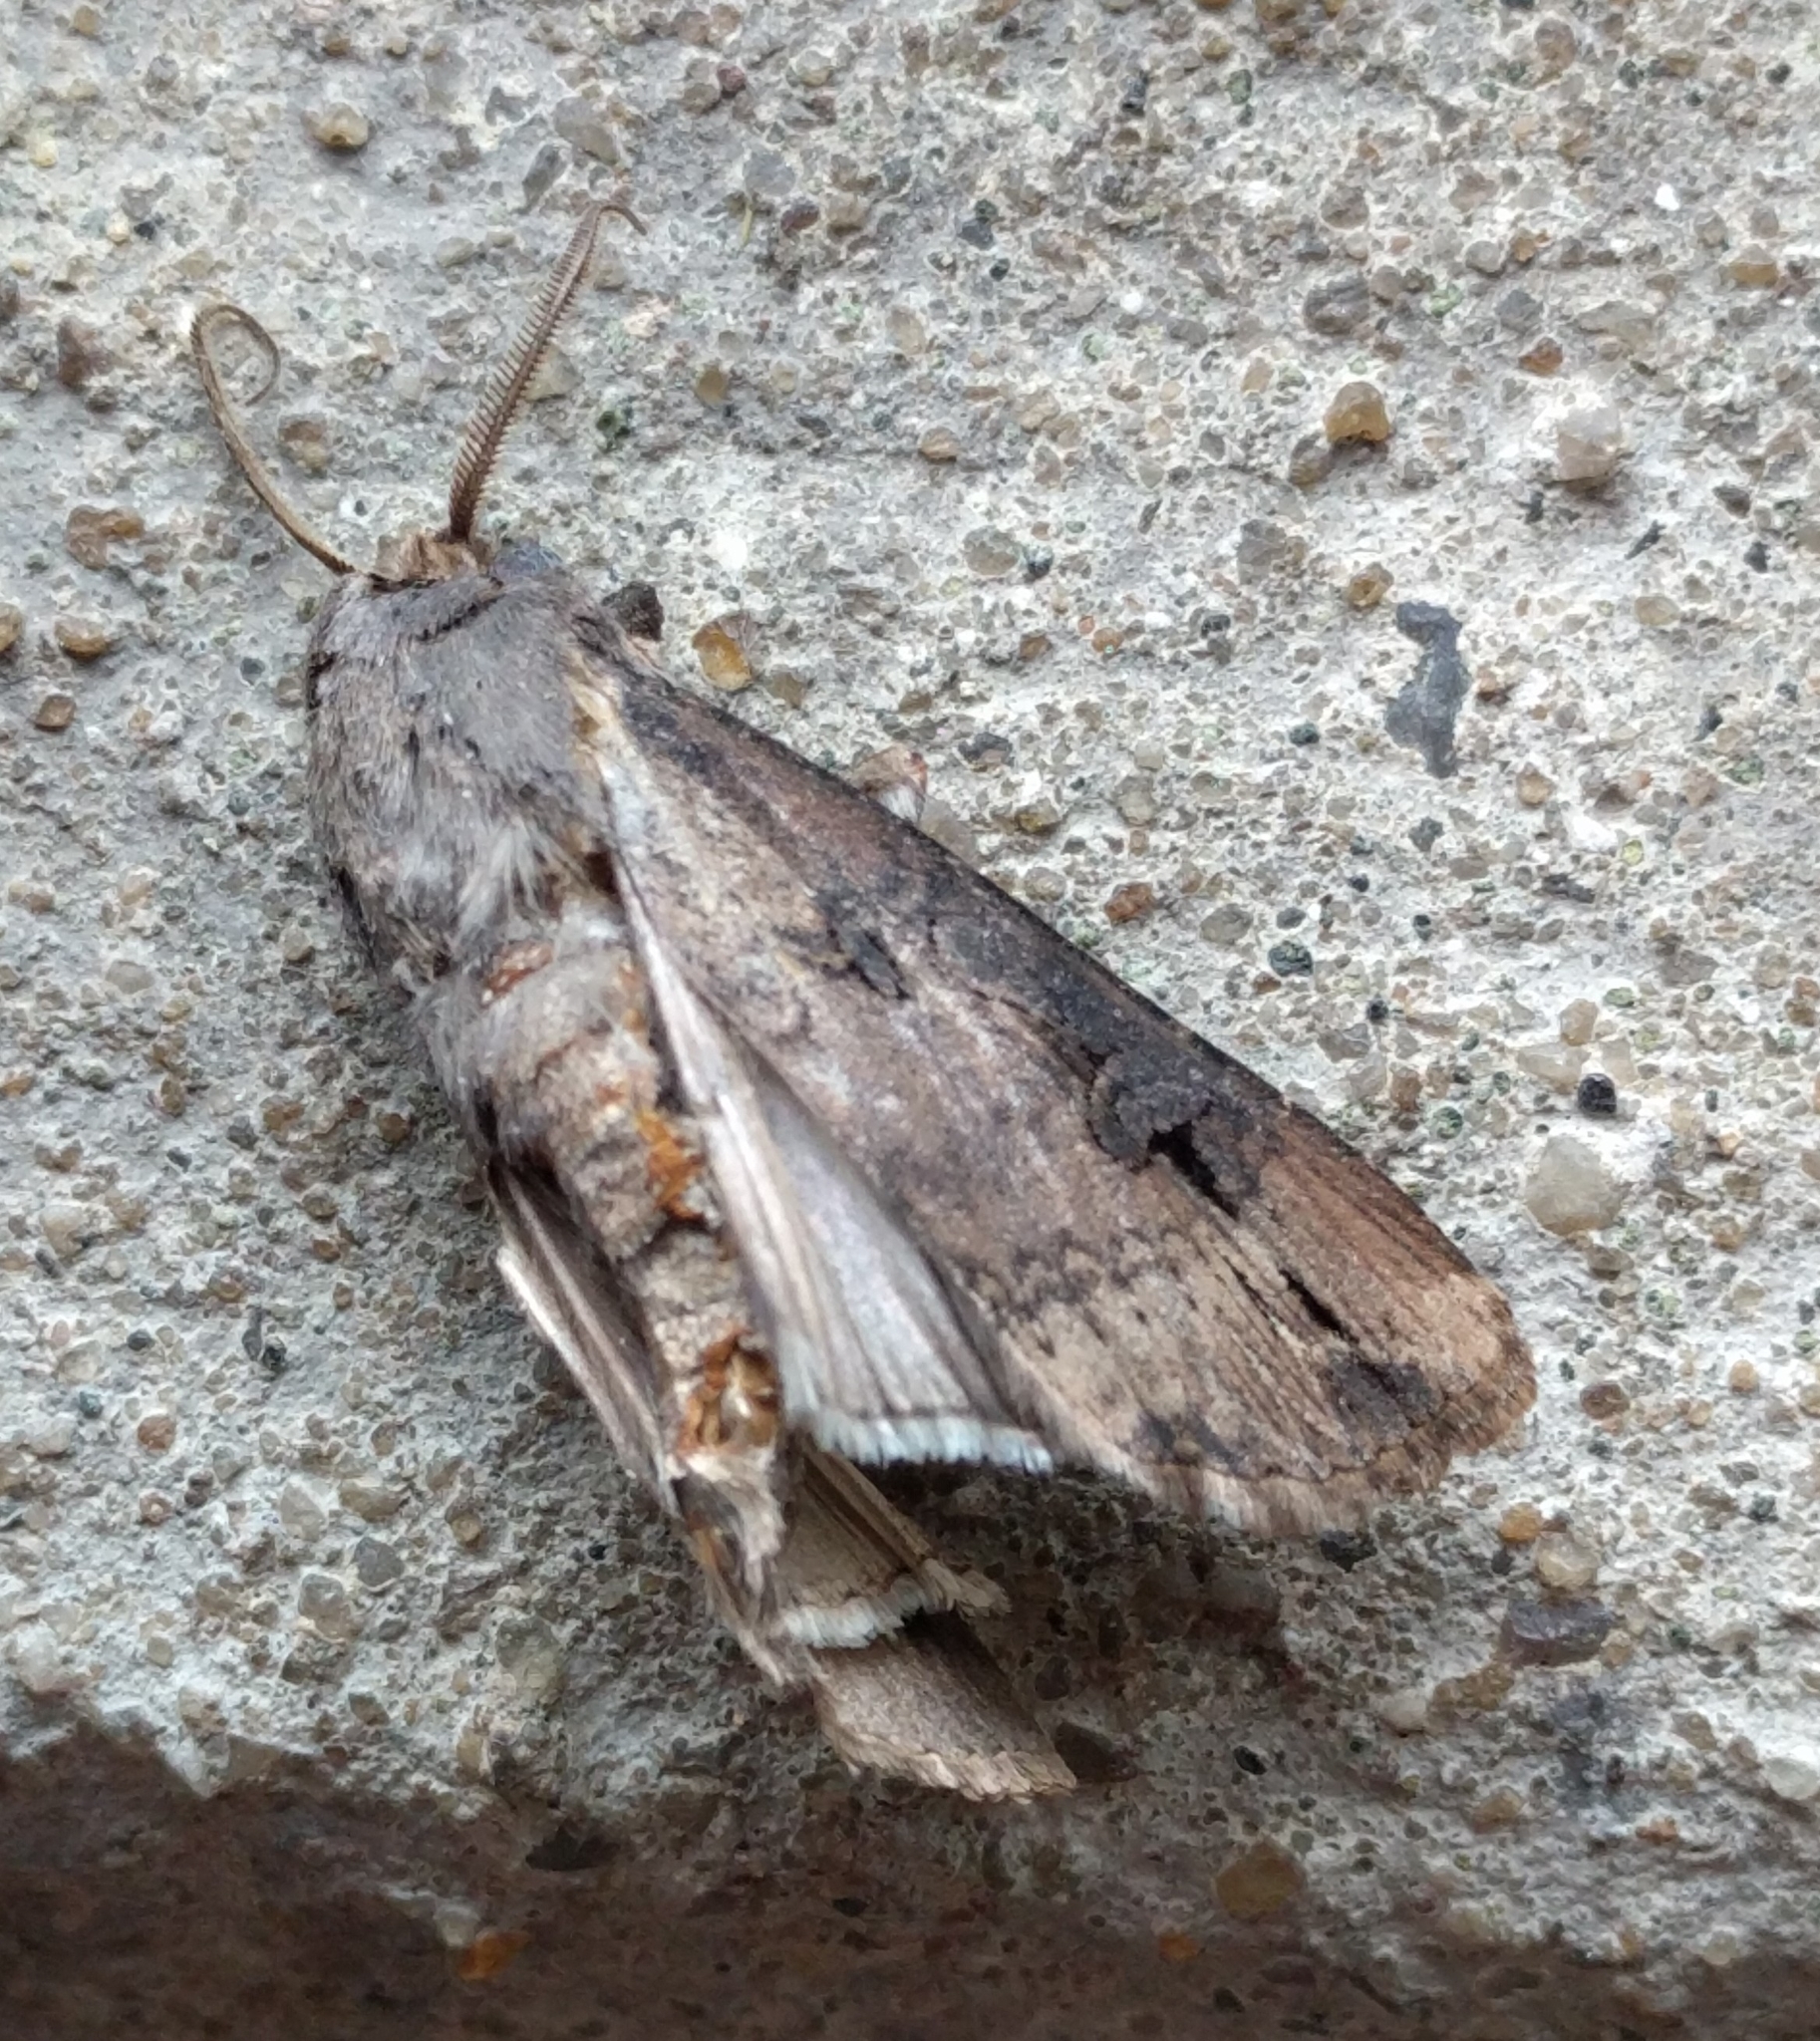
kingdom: Animalia
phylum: Arthropoda
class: Insecta
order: Lepidoptera
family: Noctuidae
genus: Agrotis
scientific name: Agrotis ipsilon
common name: Dark sword-grass
